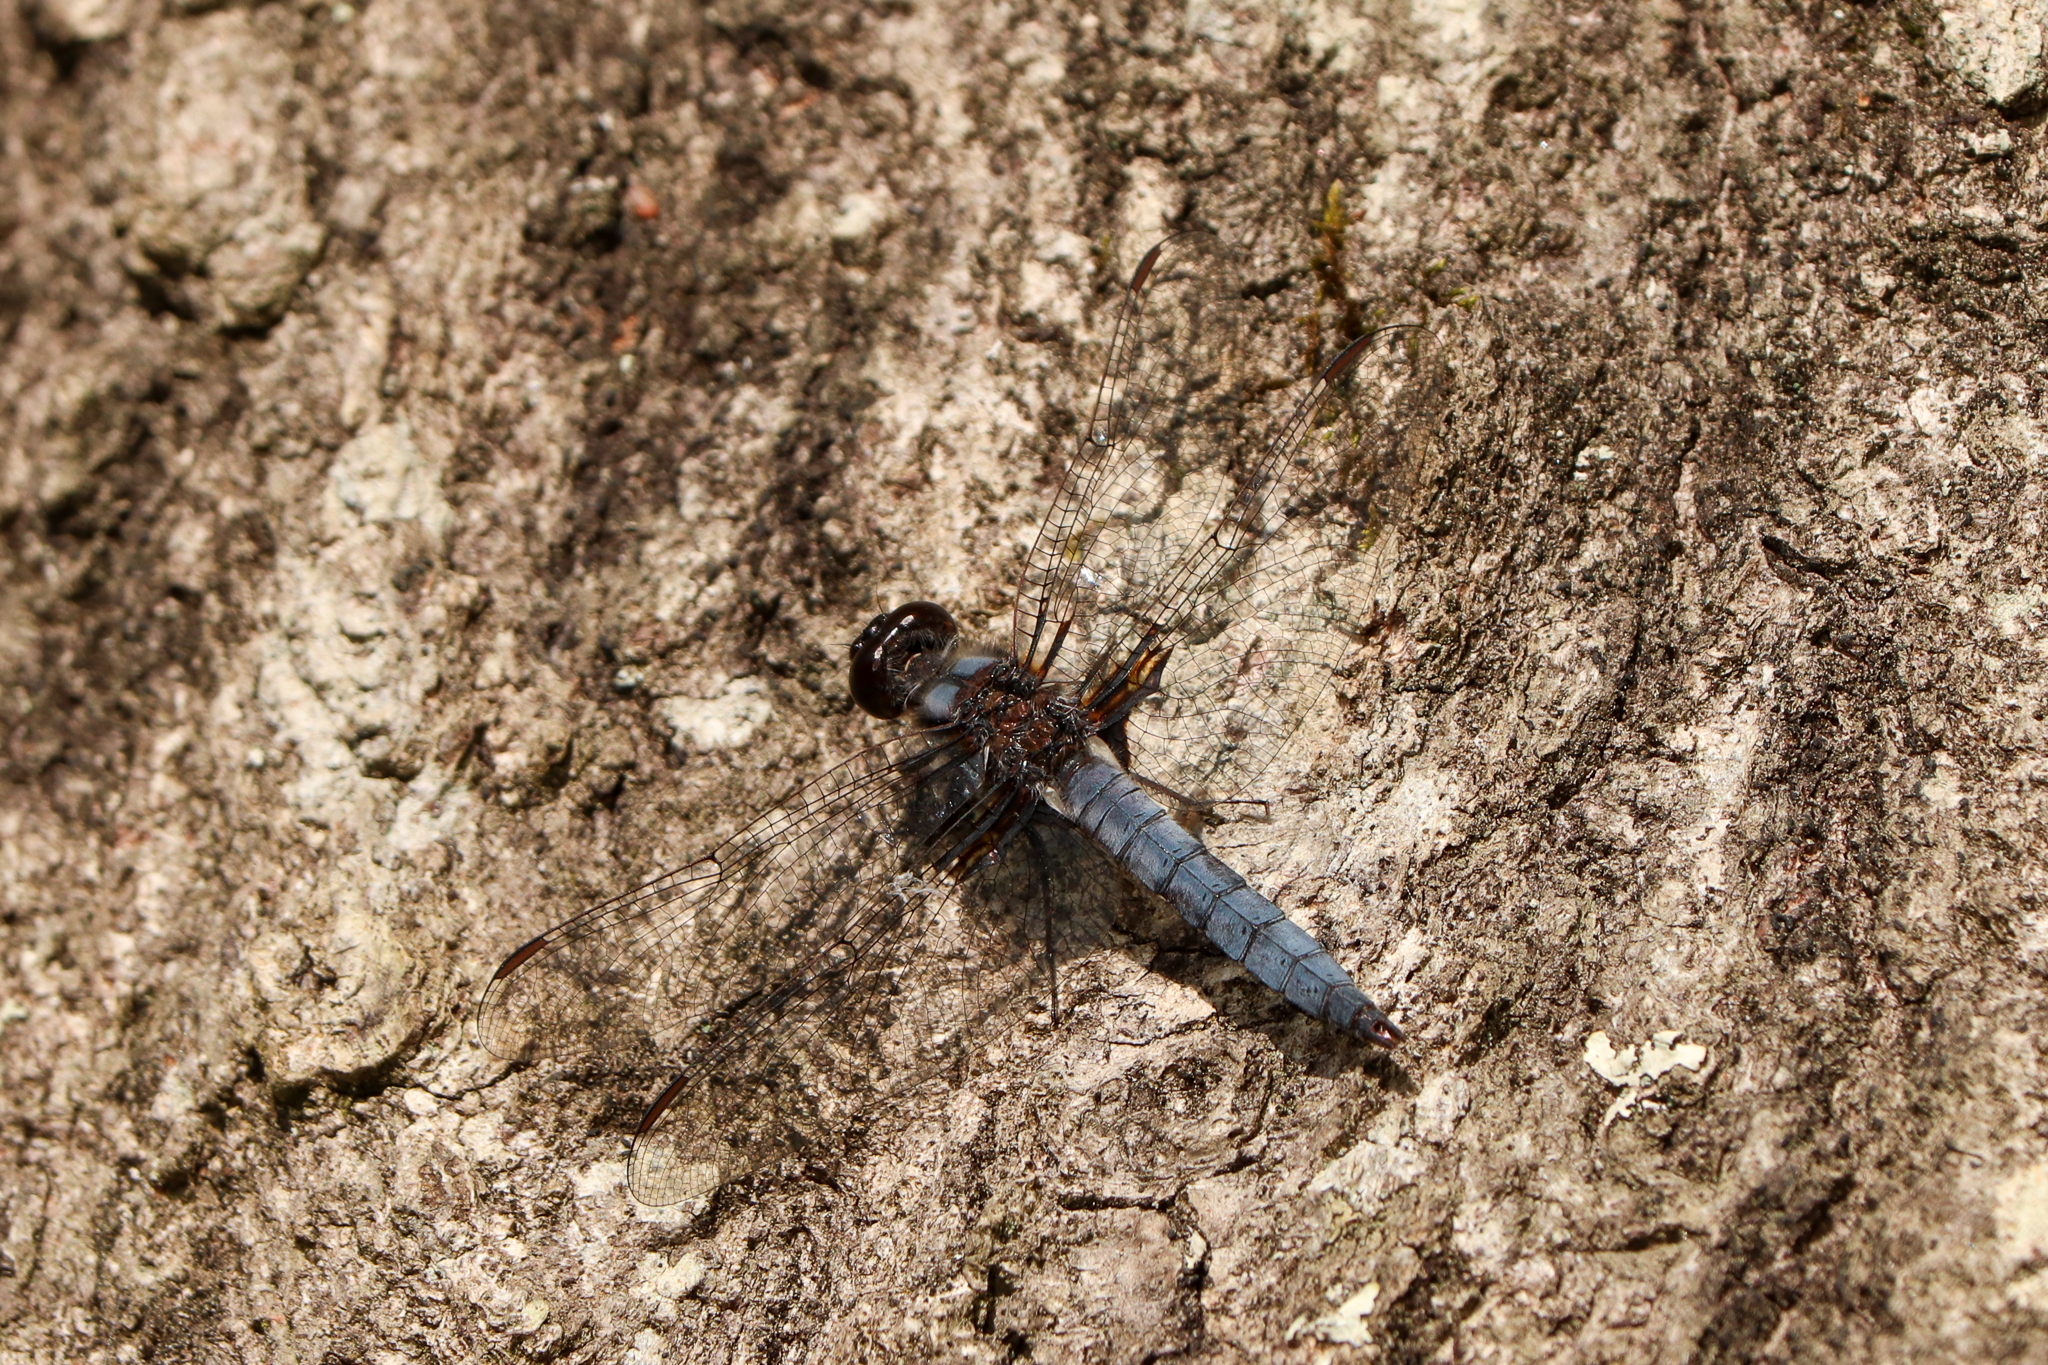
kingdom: Animalia
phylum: Arthropoda
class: Insecta
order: Odonata
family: Libellulidae
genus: Ladona
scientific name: Ladona deplanata
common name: Blue corporal
